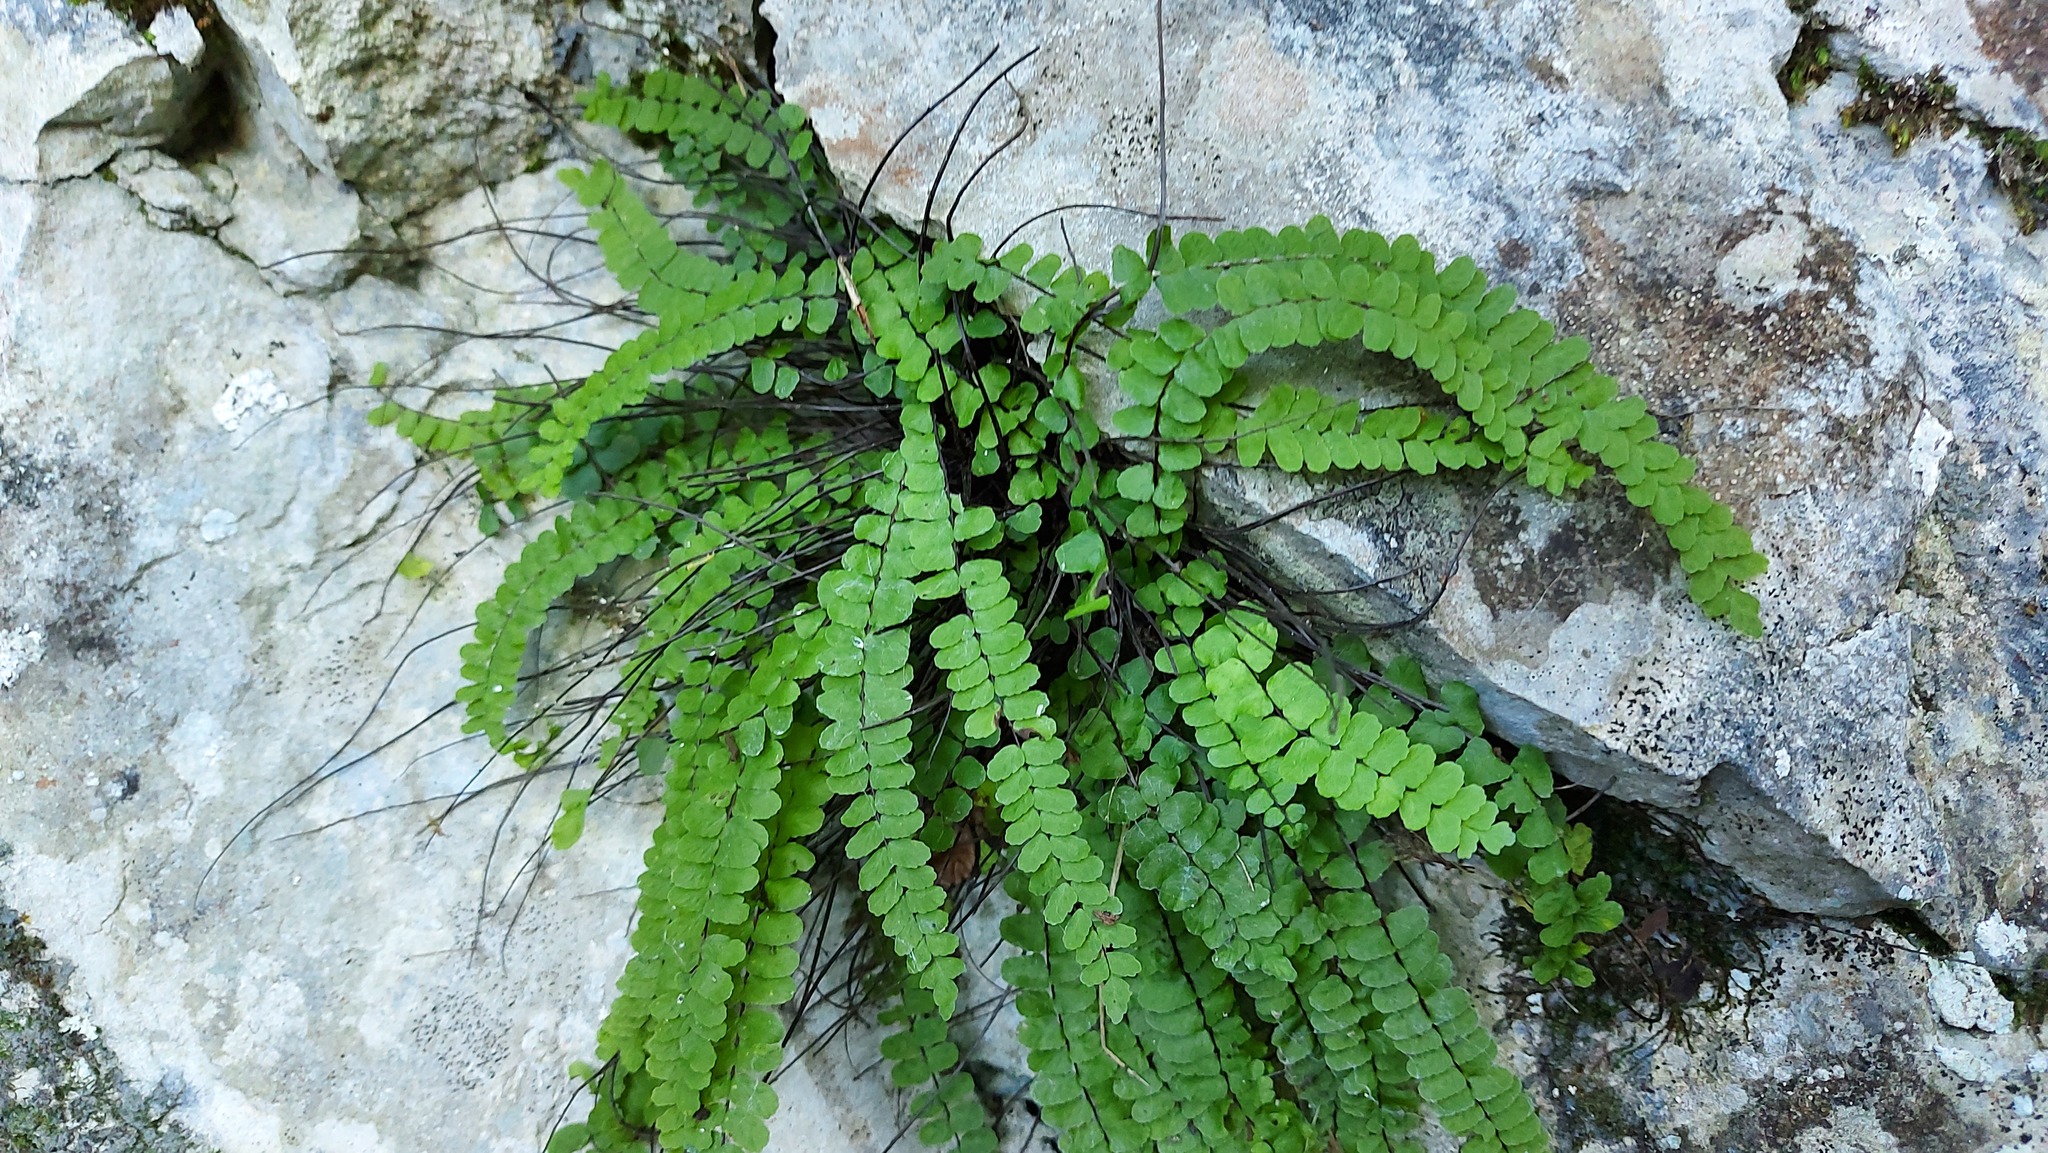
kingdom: Plantae
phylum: Tracheophyta
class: Polypodiopsida
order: Polypodiales
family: Aspleniaceae
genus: Asplenium
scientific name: Asplenium trichomanes
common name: Maidenhair spleenwort
